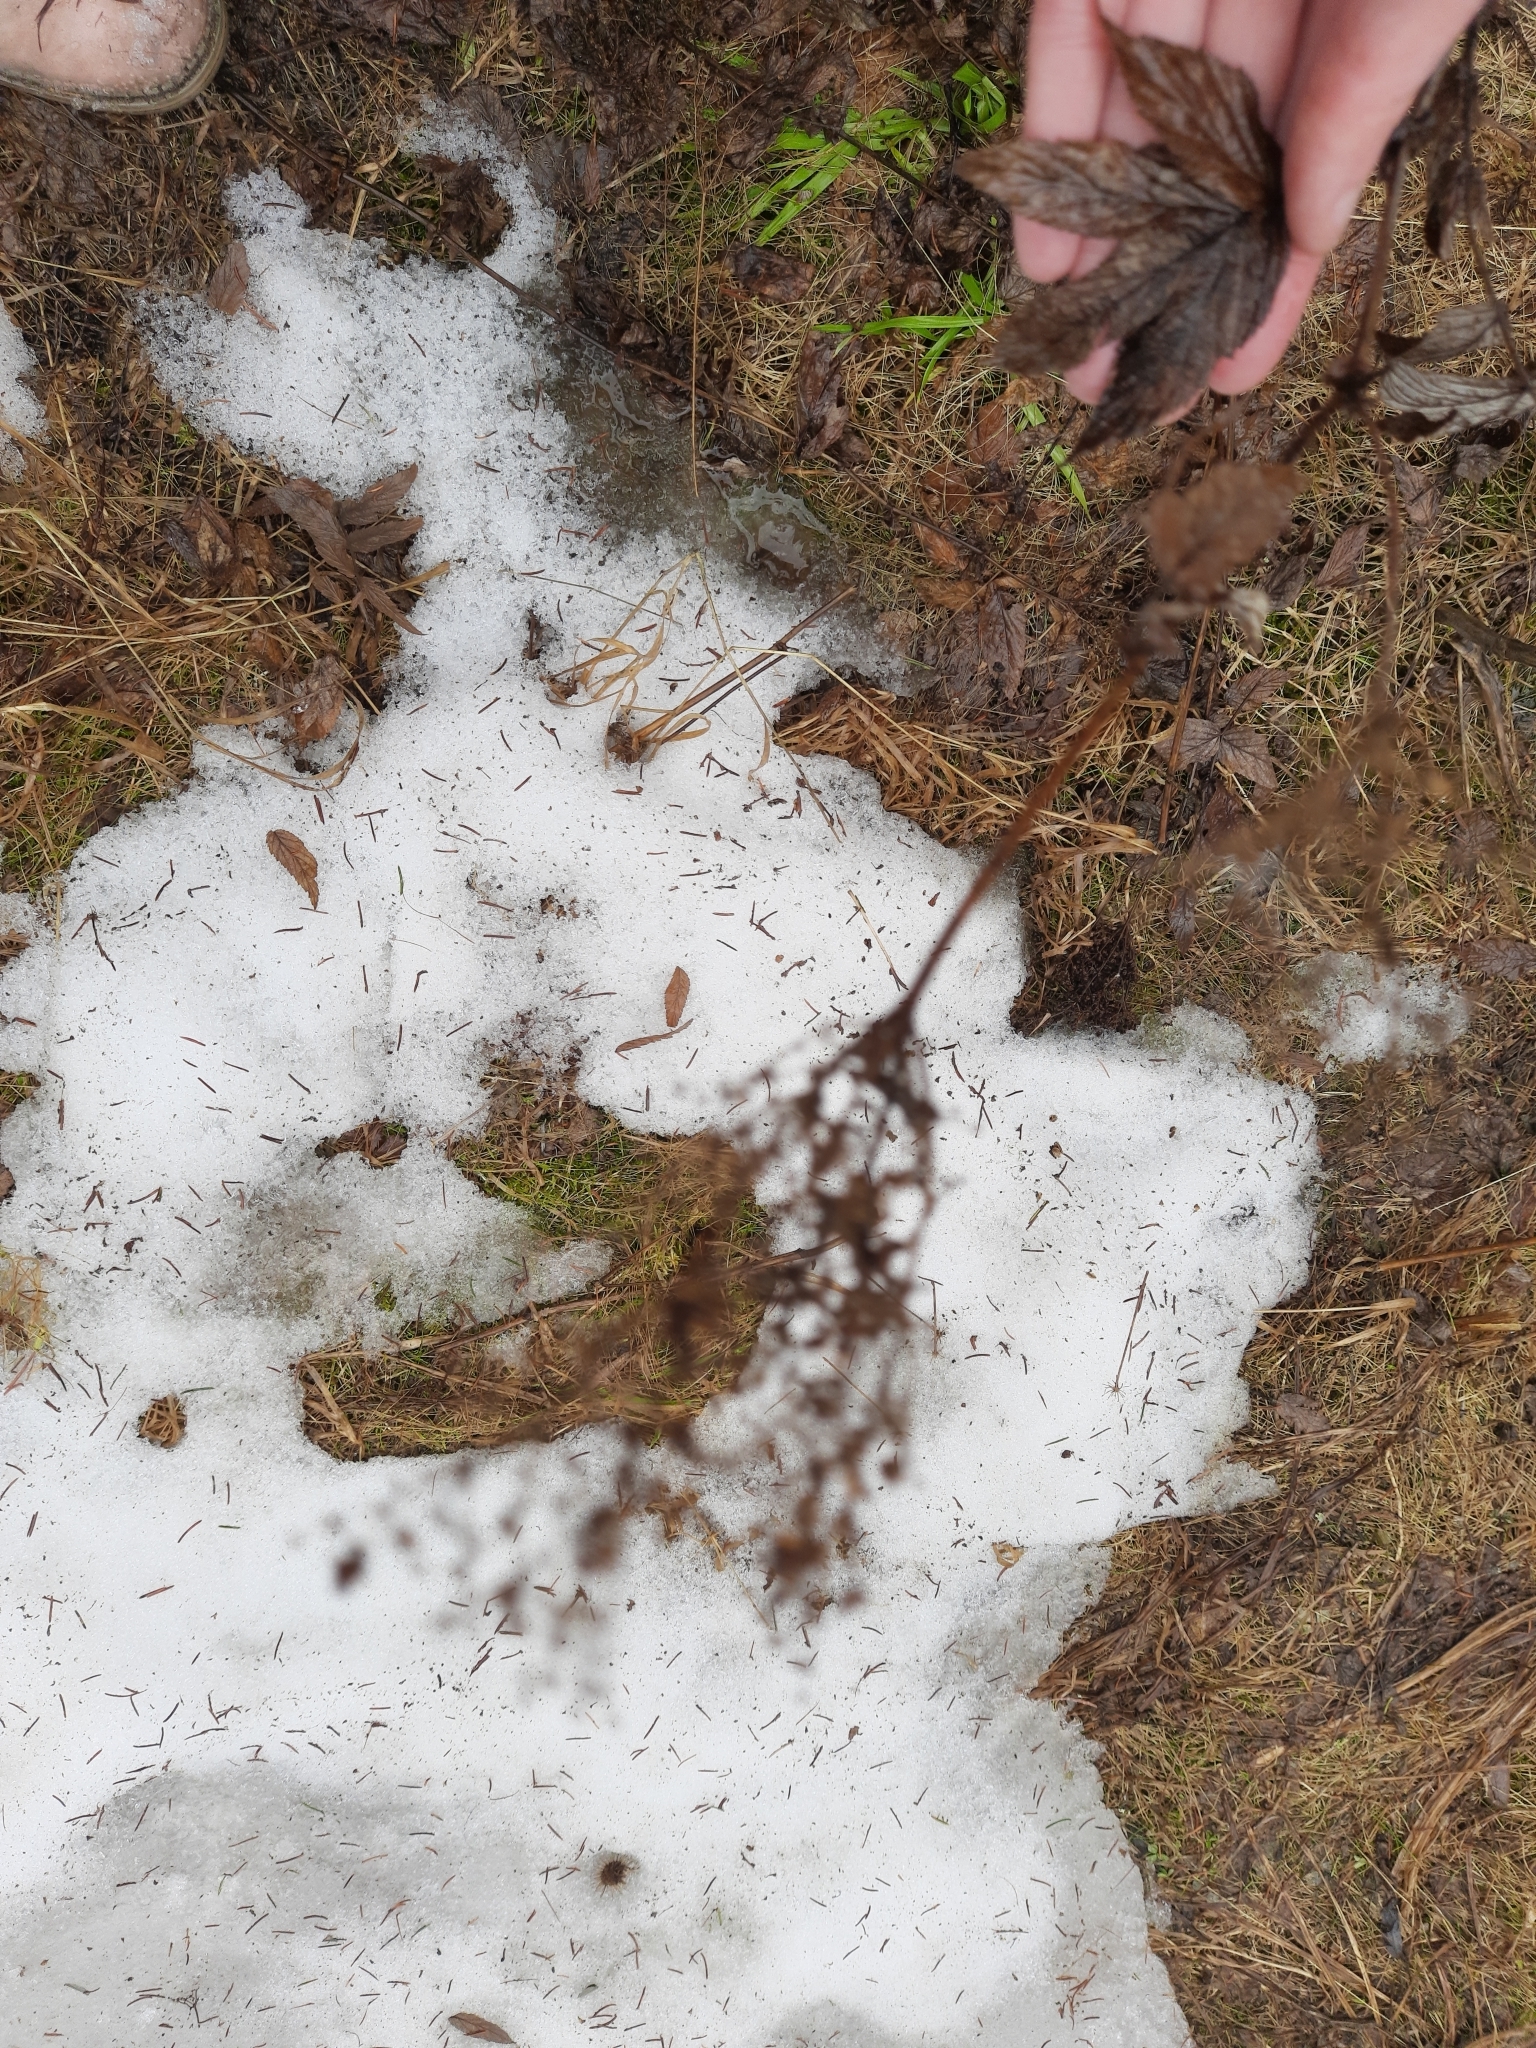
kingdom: Plantae
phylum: Tracheophyta
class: Magnoliopsida
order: Rosales
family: Rosaceae
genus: Filipendula
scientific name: Filipendula ulmaria
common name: Meadowsweet
